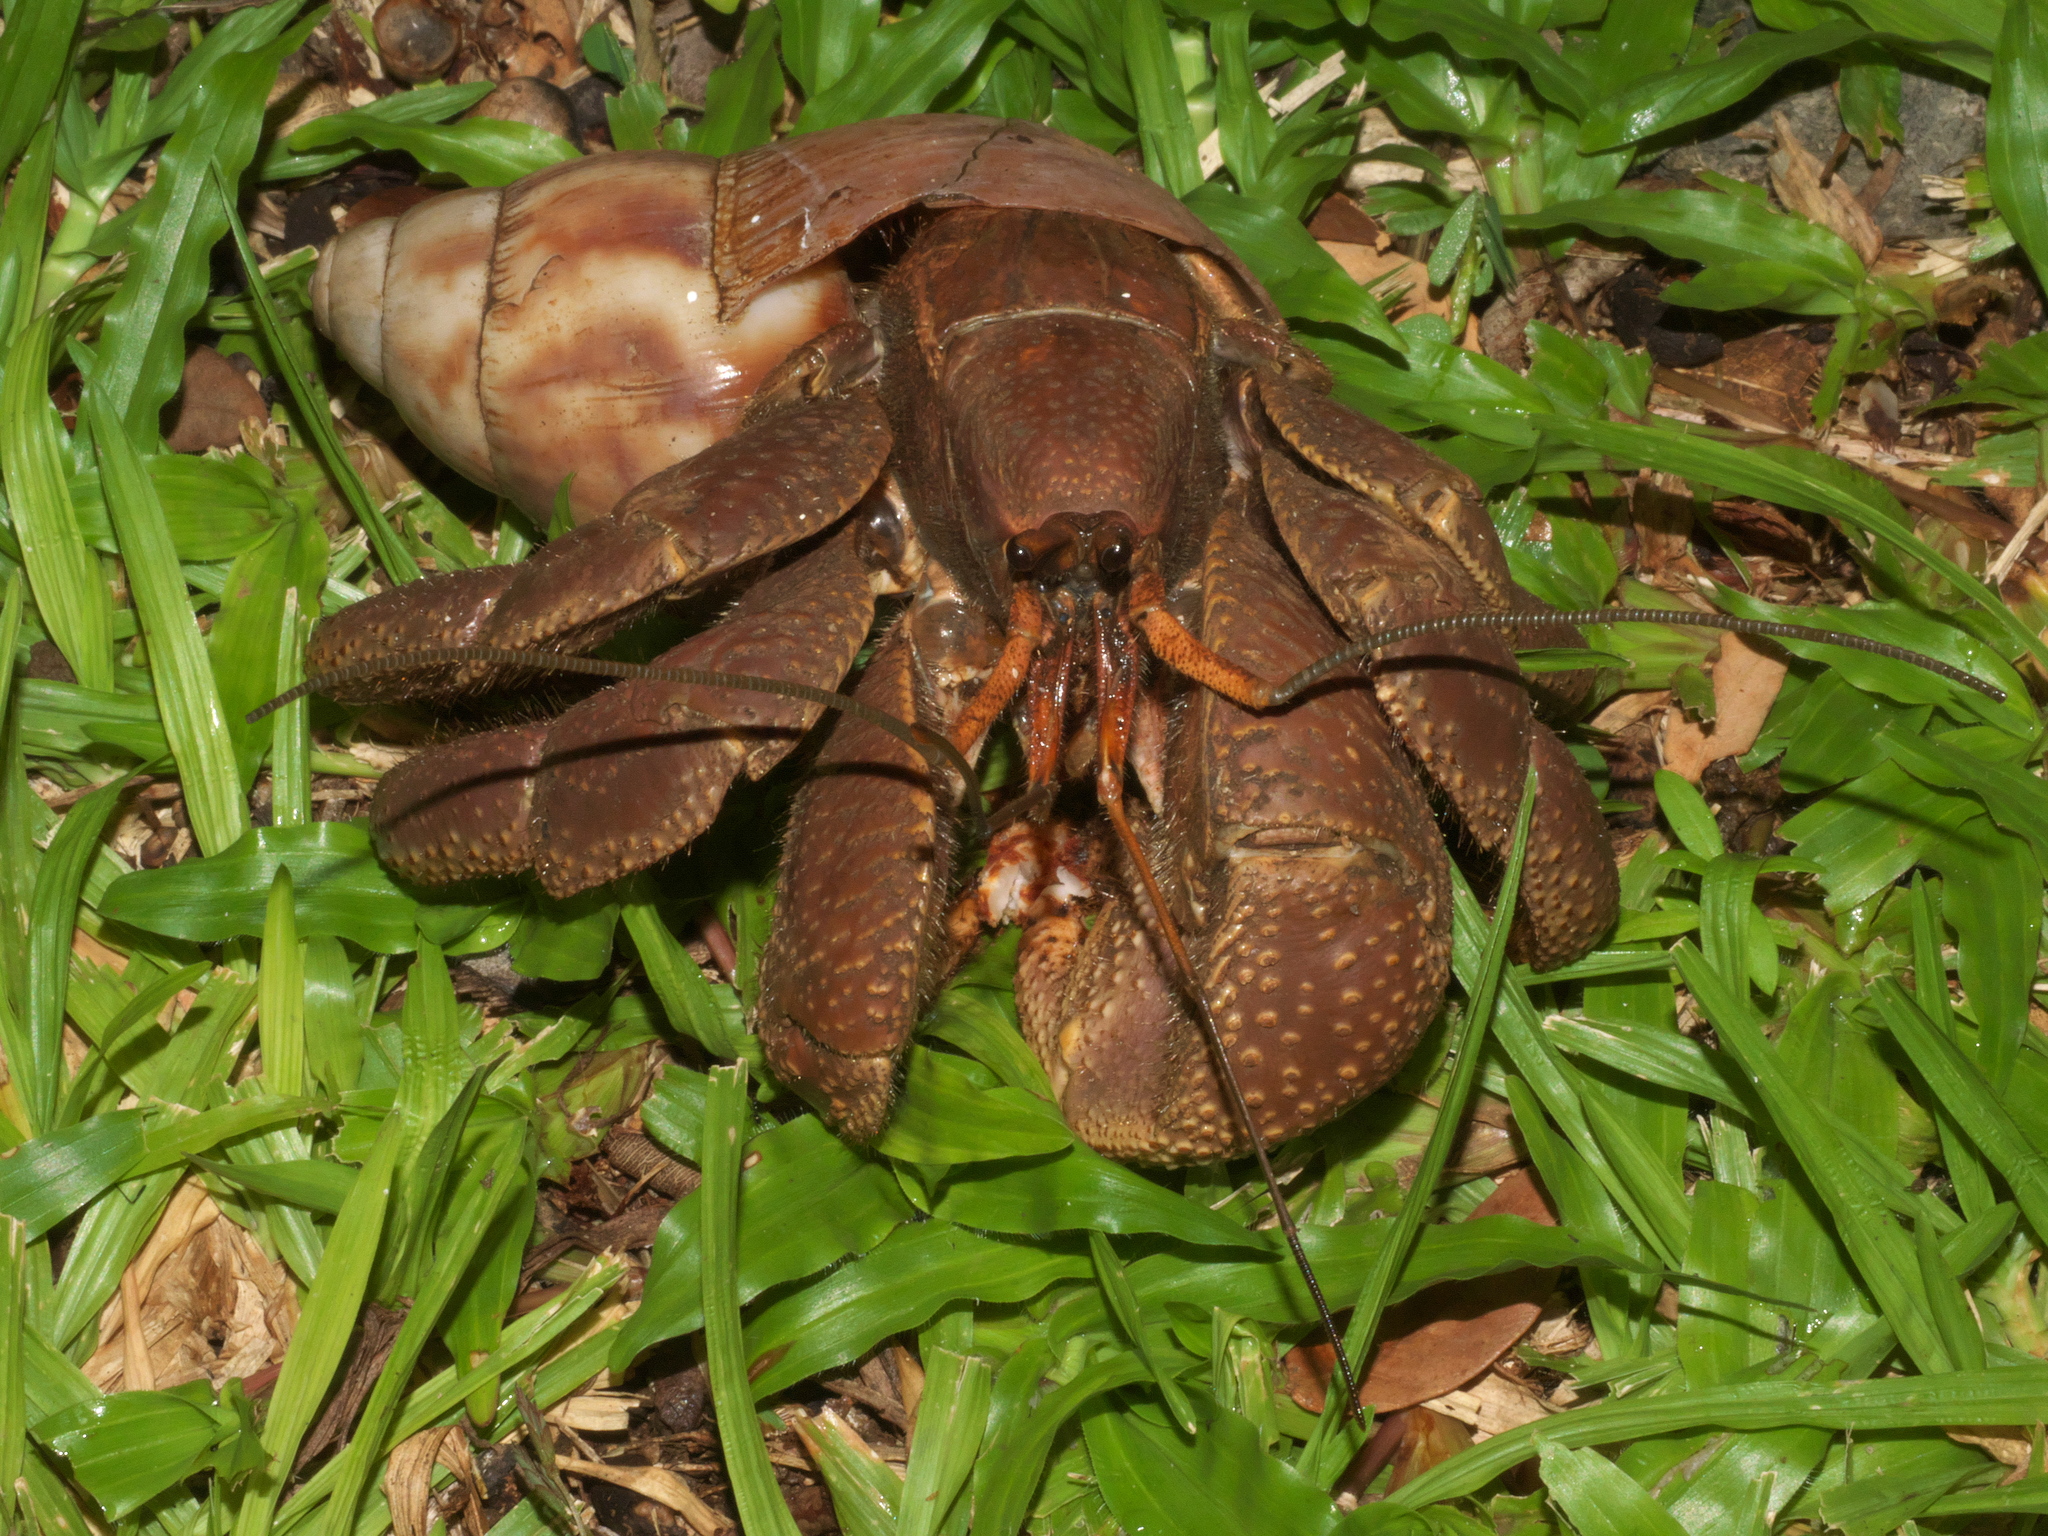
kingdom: Animalia
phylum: Arthropoda
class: Malacostraca
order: Decapoda
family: Coenobitidae
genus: Coenobita
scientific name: Coenobita brevimanus
